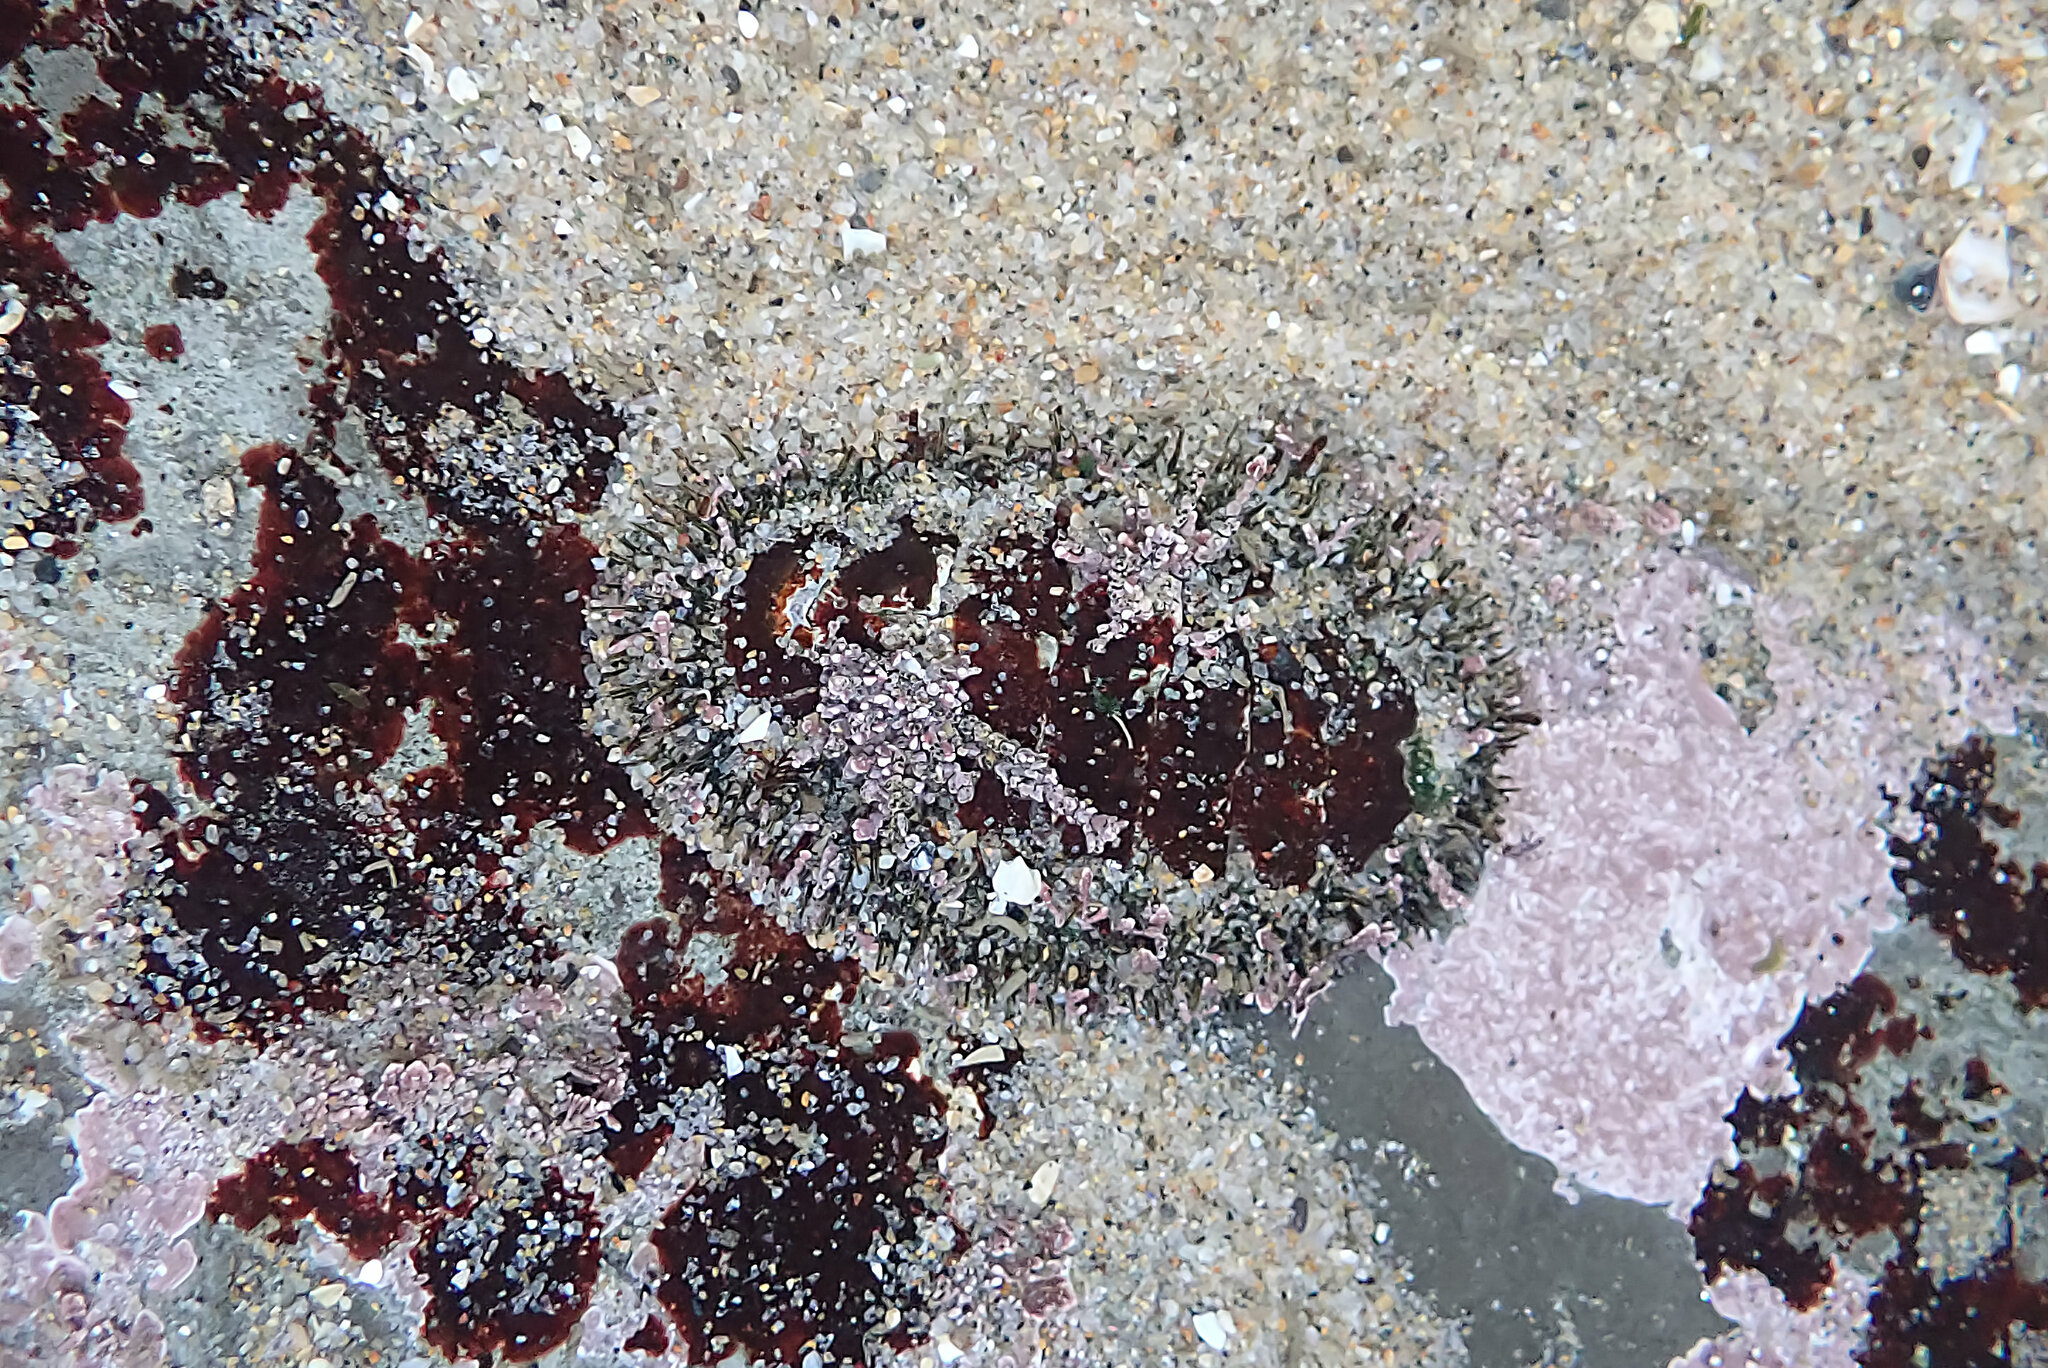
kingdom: Animalia
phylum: Mollusca
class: Polyplacophora
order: Chitonida
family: Mopaliidae
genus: Mopalia
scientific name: Mopalia muscosa
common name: Mossy chiton
